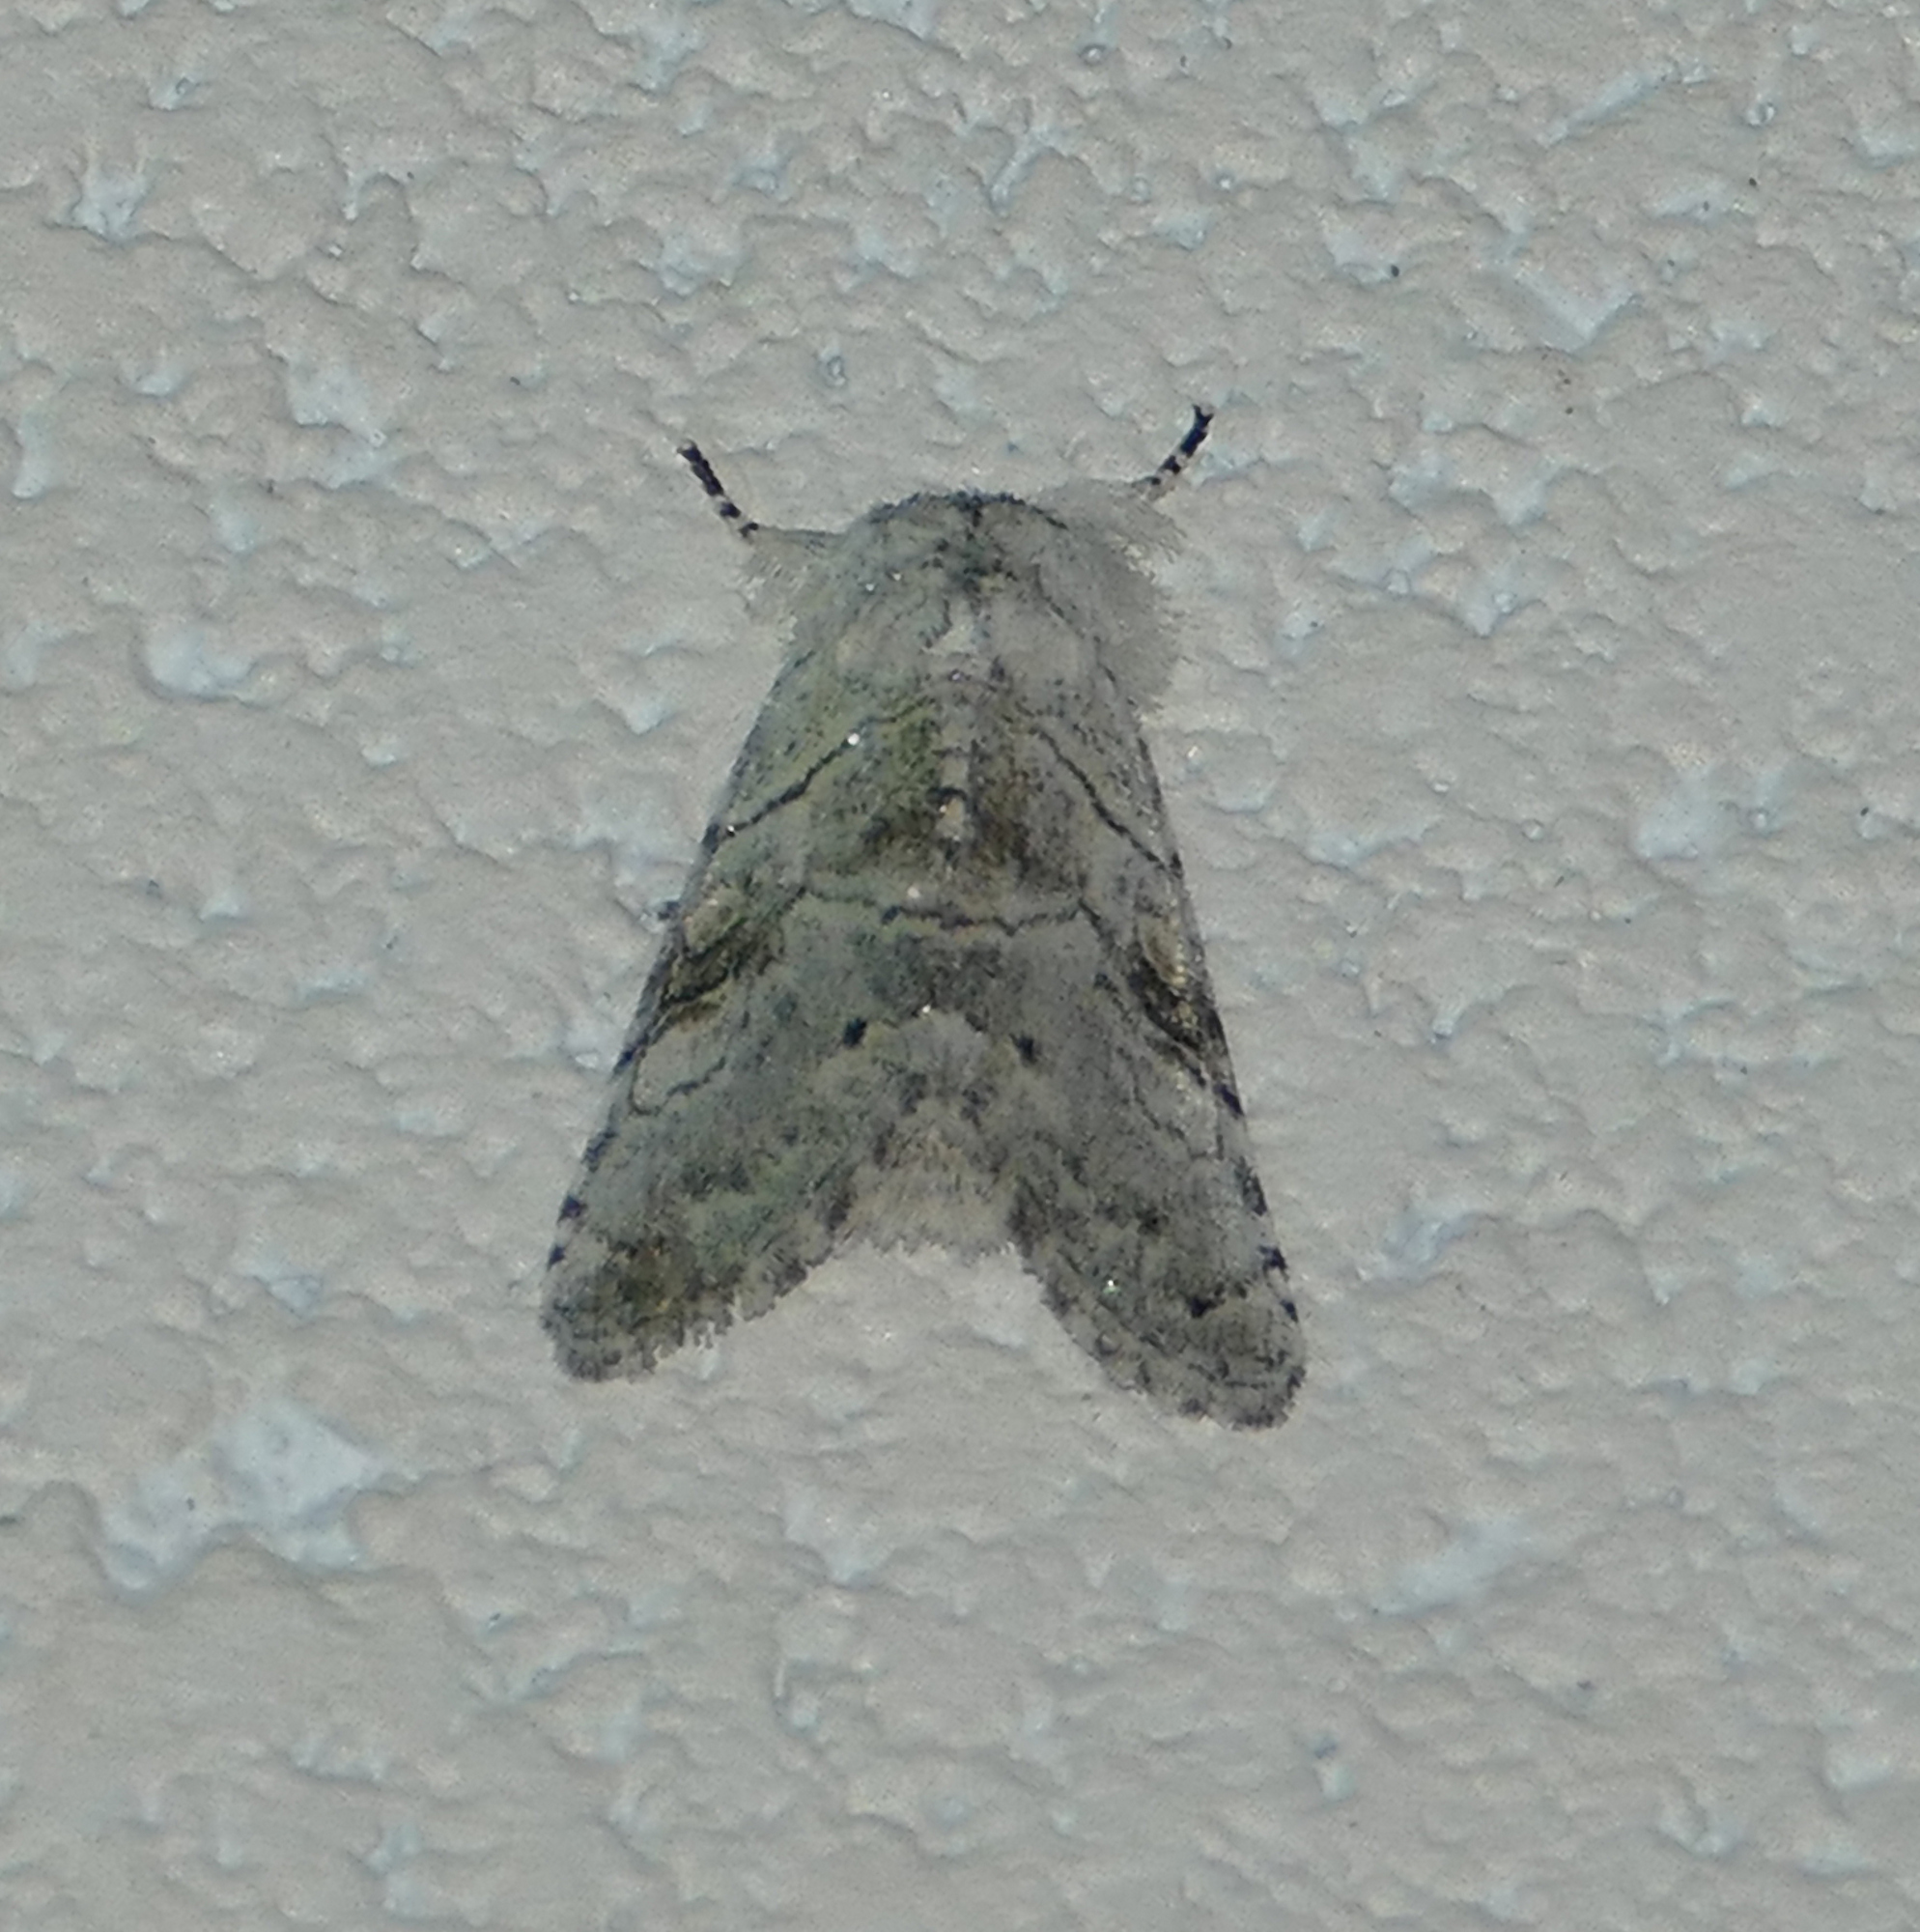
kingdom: Animalia
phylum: Arthropoda
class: Insecta
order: Lepidoptera
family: Noctuidae
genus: Charadra
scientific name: Charadra dispulsa
